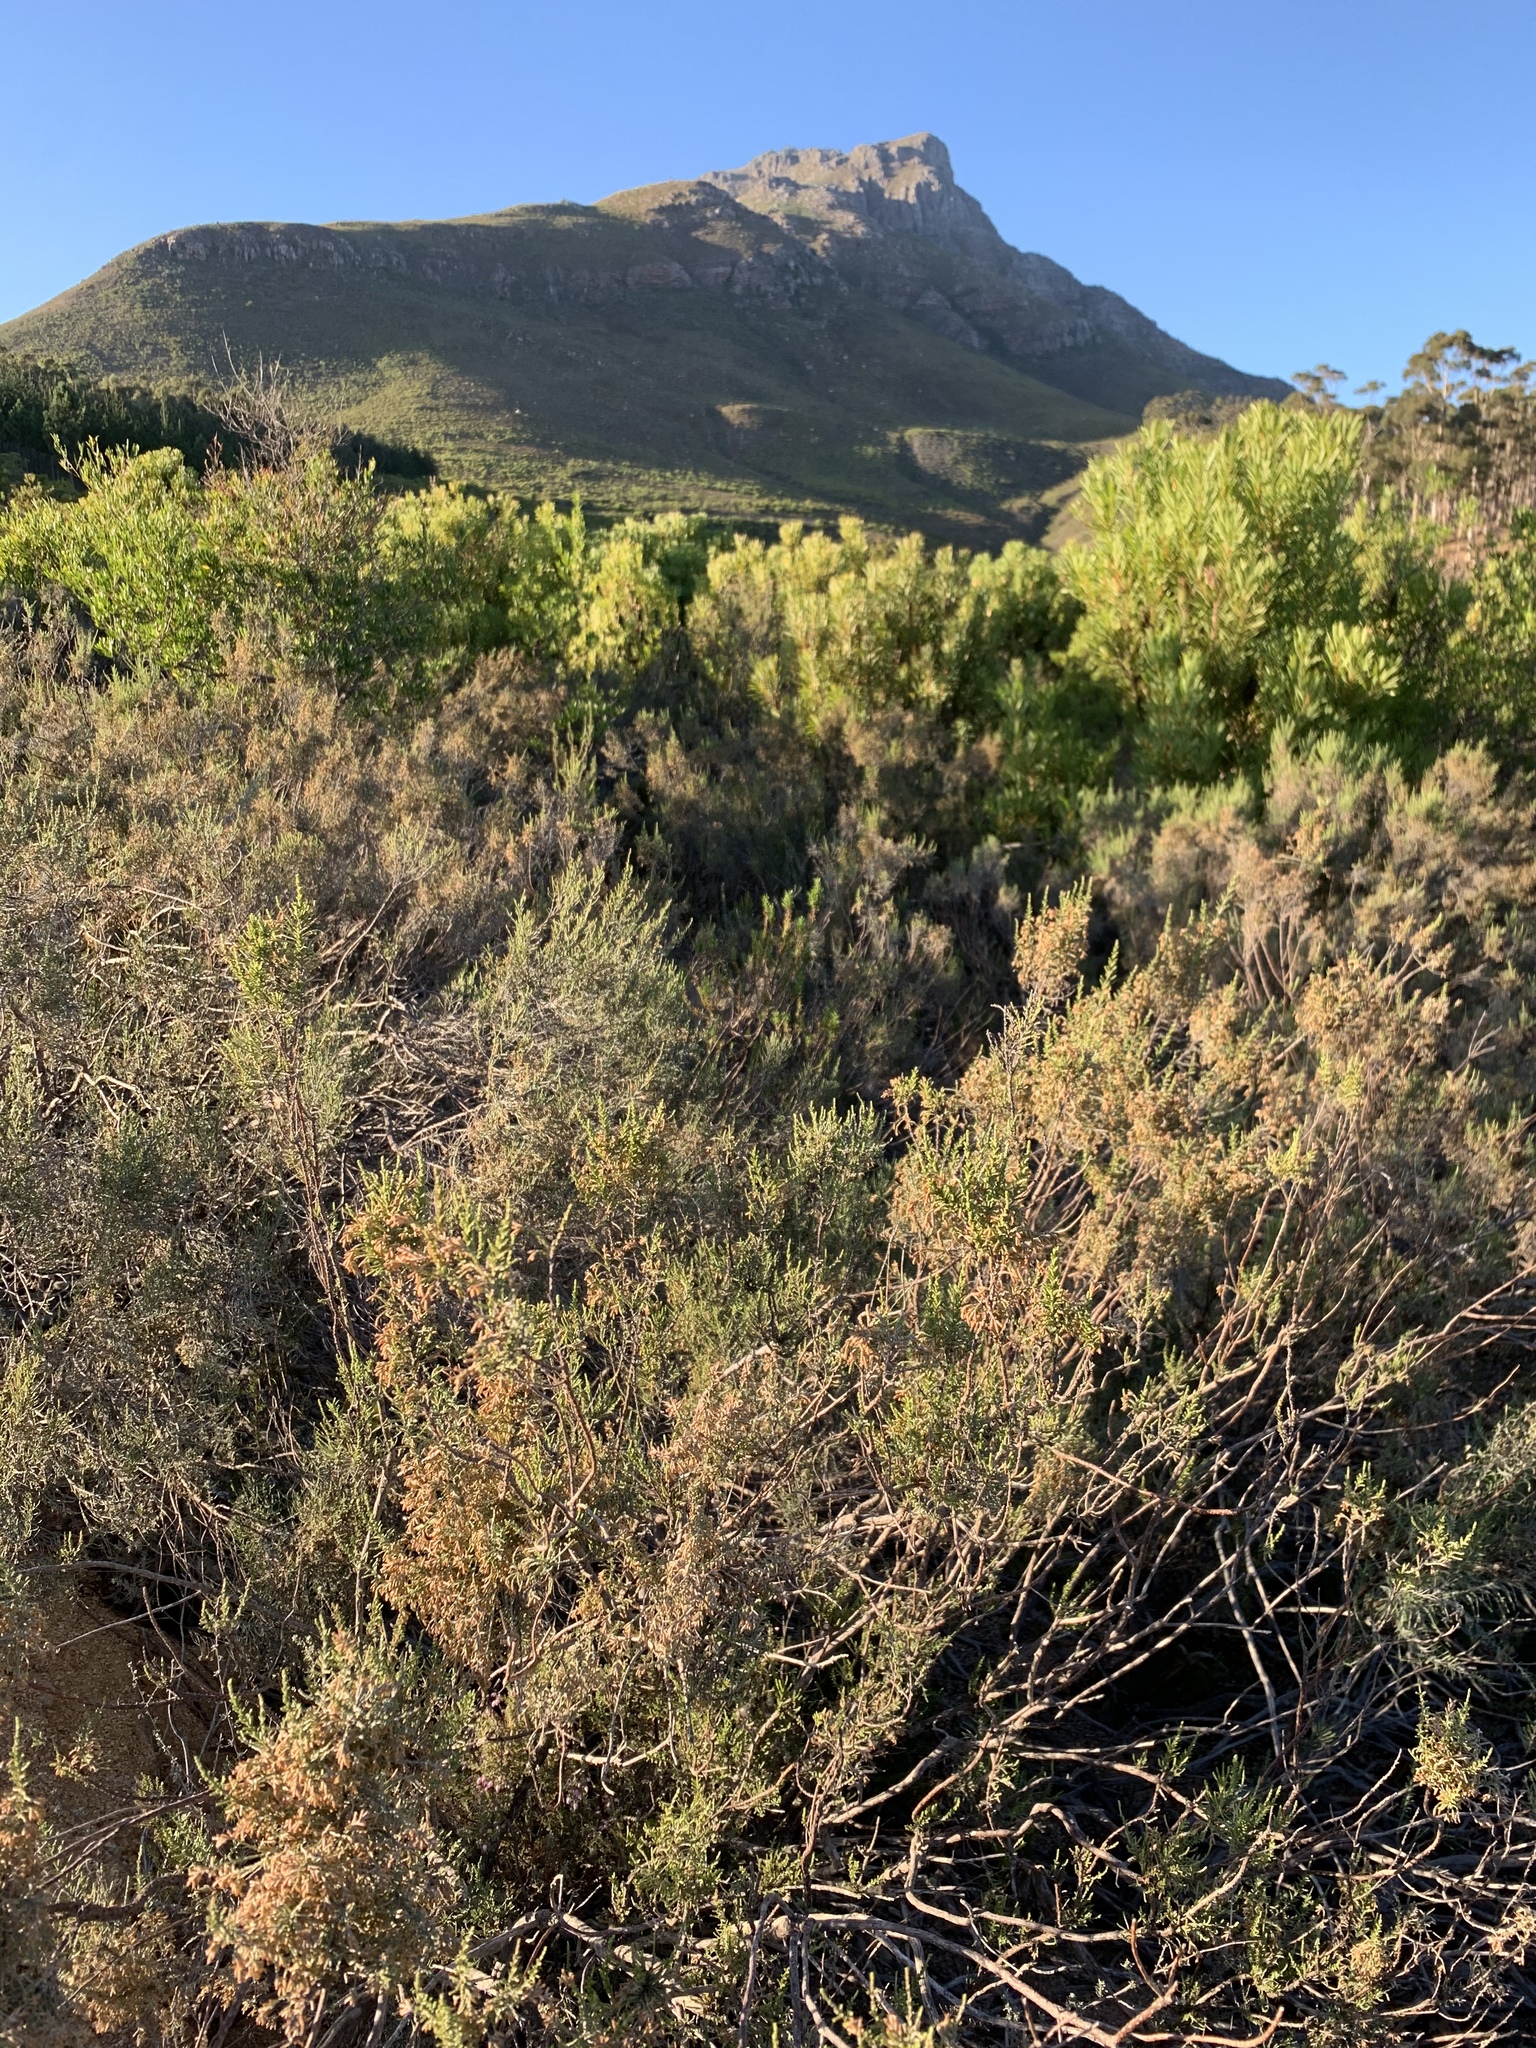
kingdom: Plantae
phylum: Tracheophyta
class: Magnoliopsida
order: Asterales
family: Asteraceae
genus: Dicerothamnus
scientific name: Dicerothamnus rhinocerotis
